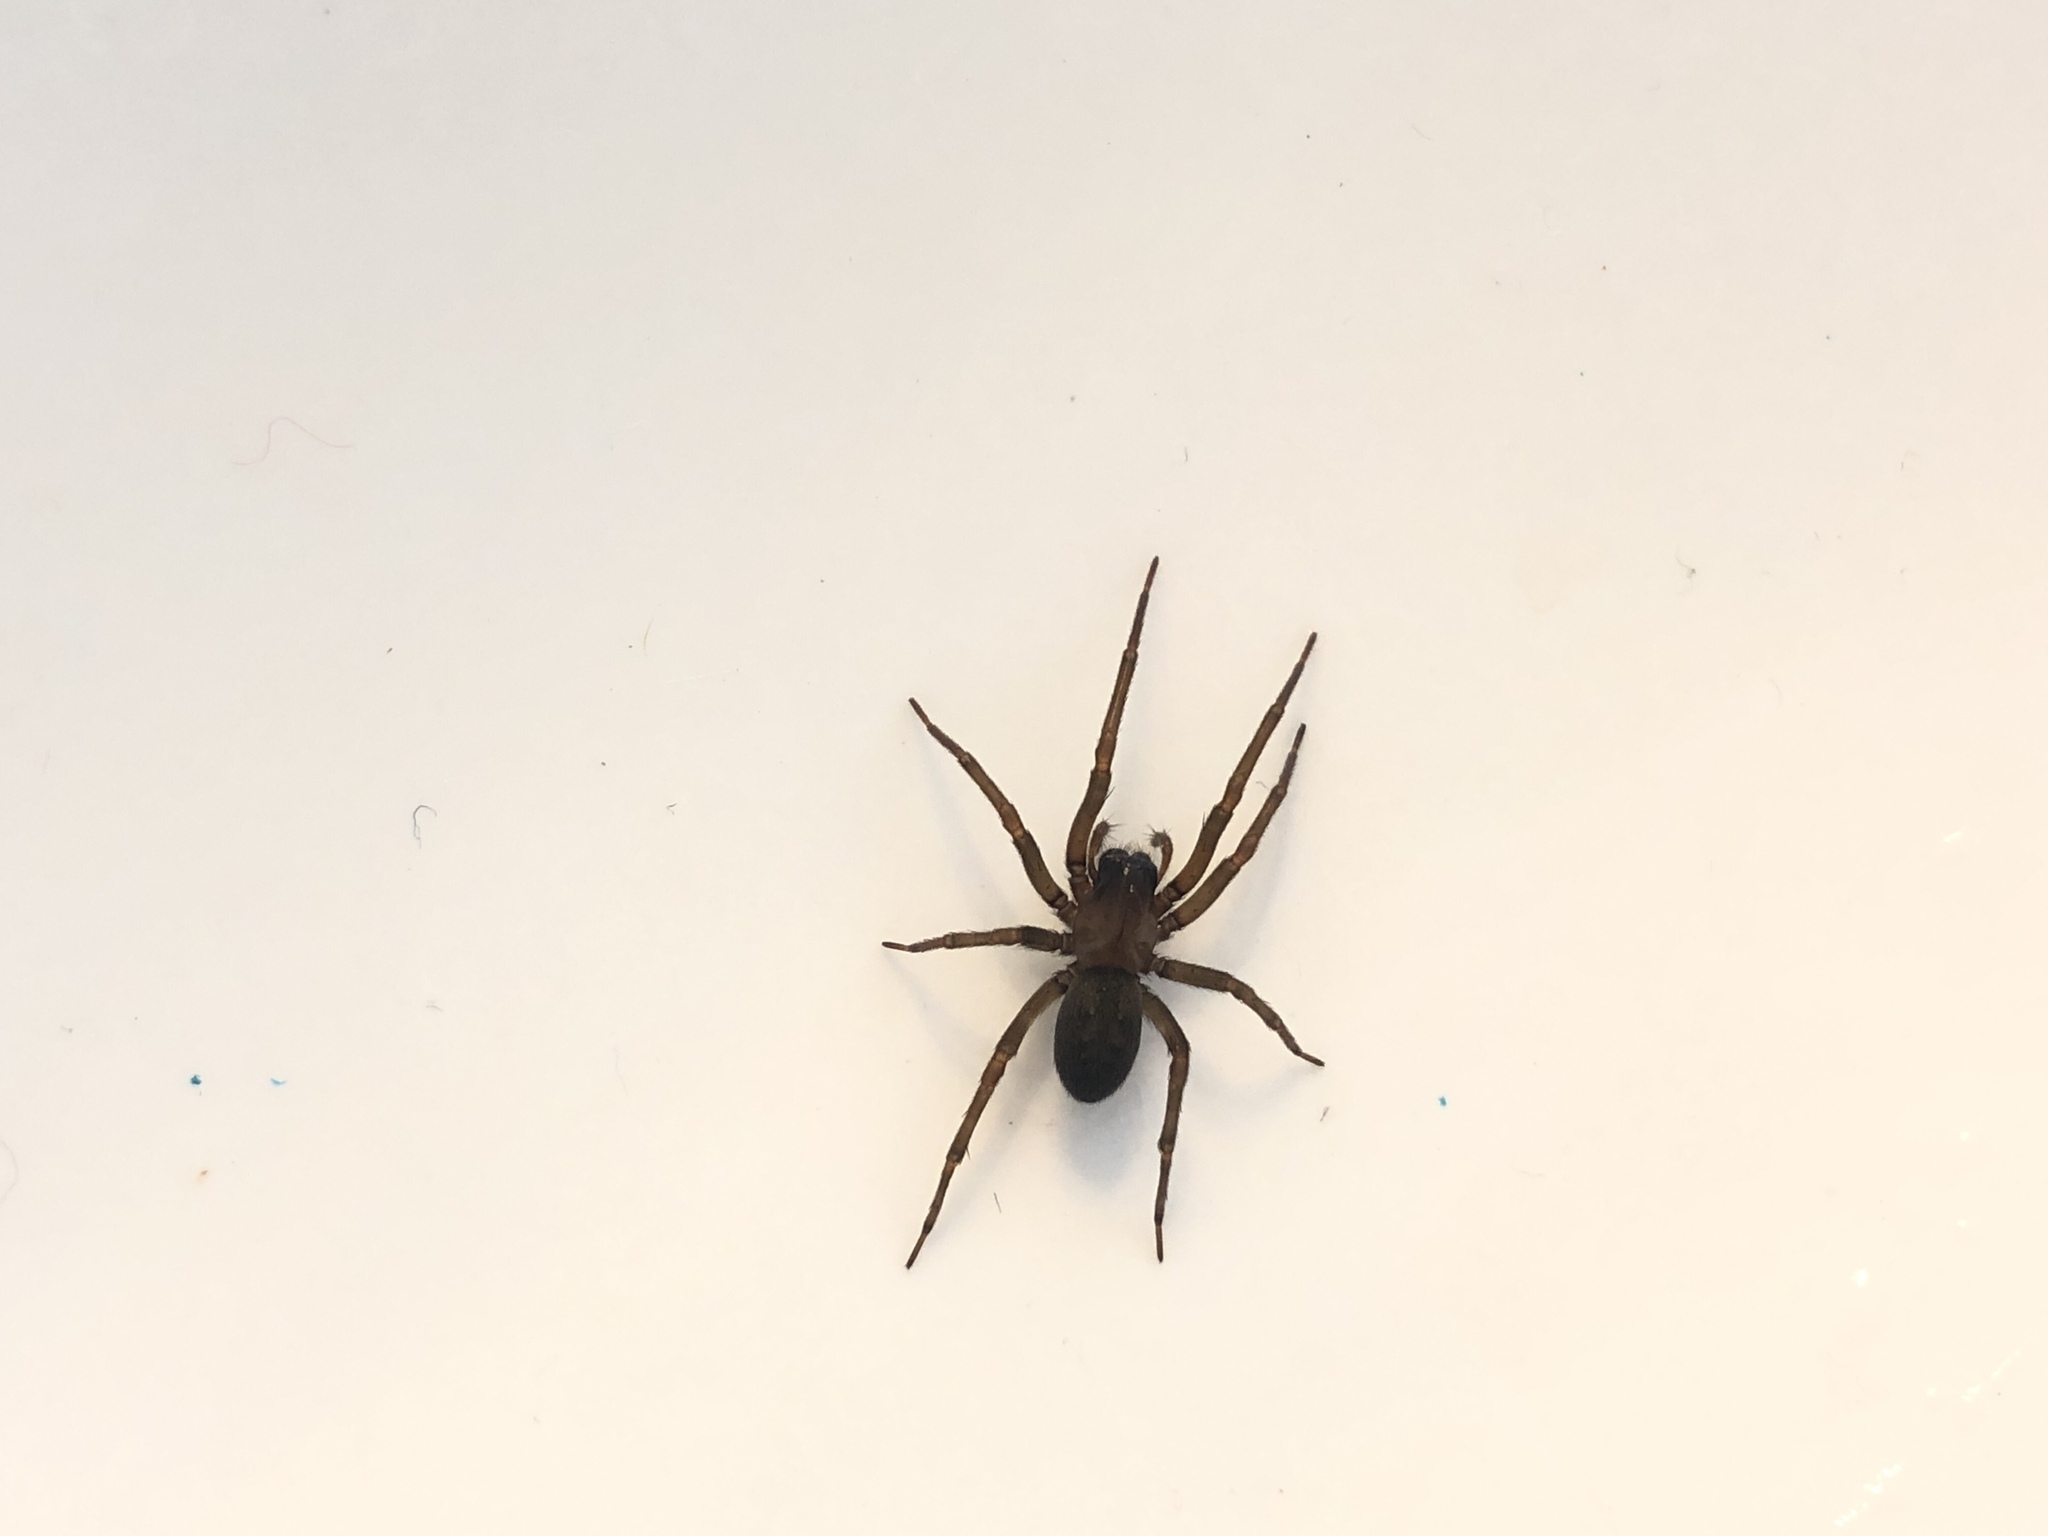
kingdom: Animalia
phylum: Arthropoda
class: Arachnida
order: Araneae
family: Desidae
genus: Metaltella
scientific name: Metaltella simoni
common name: Cribellate spider
